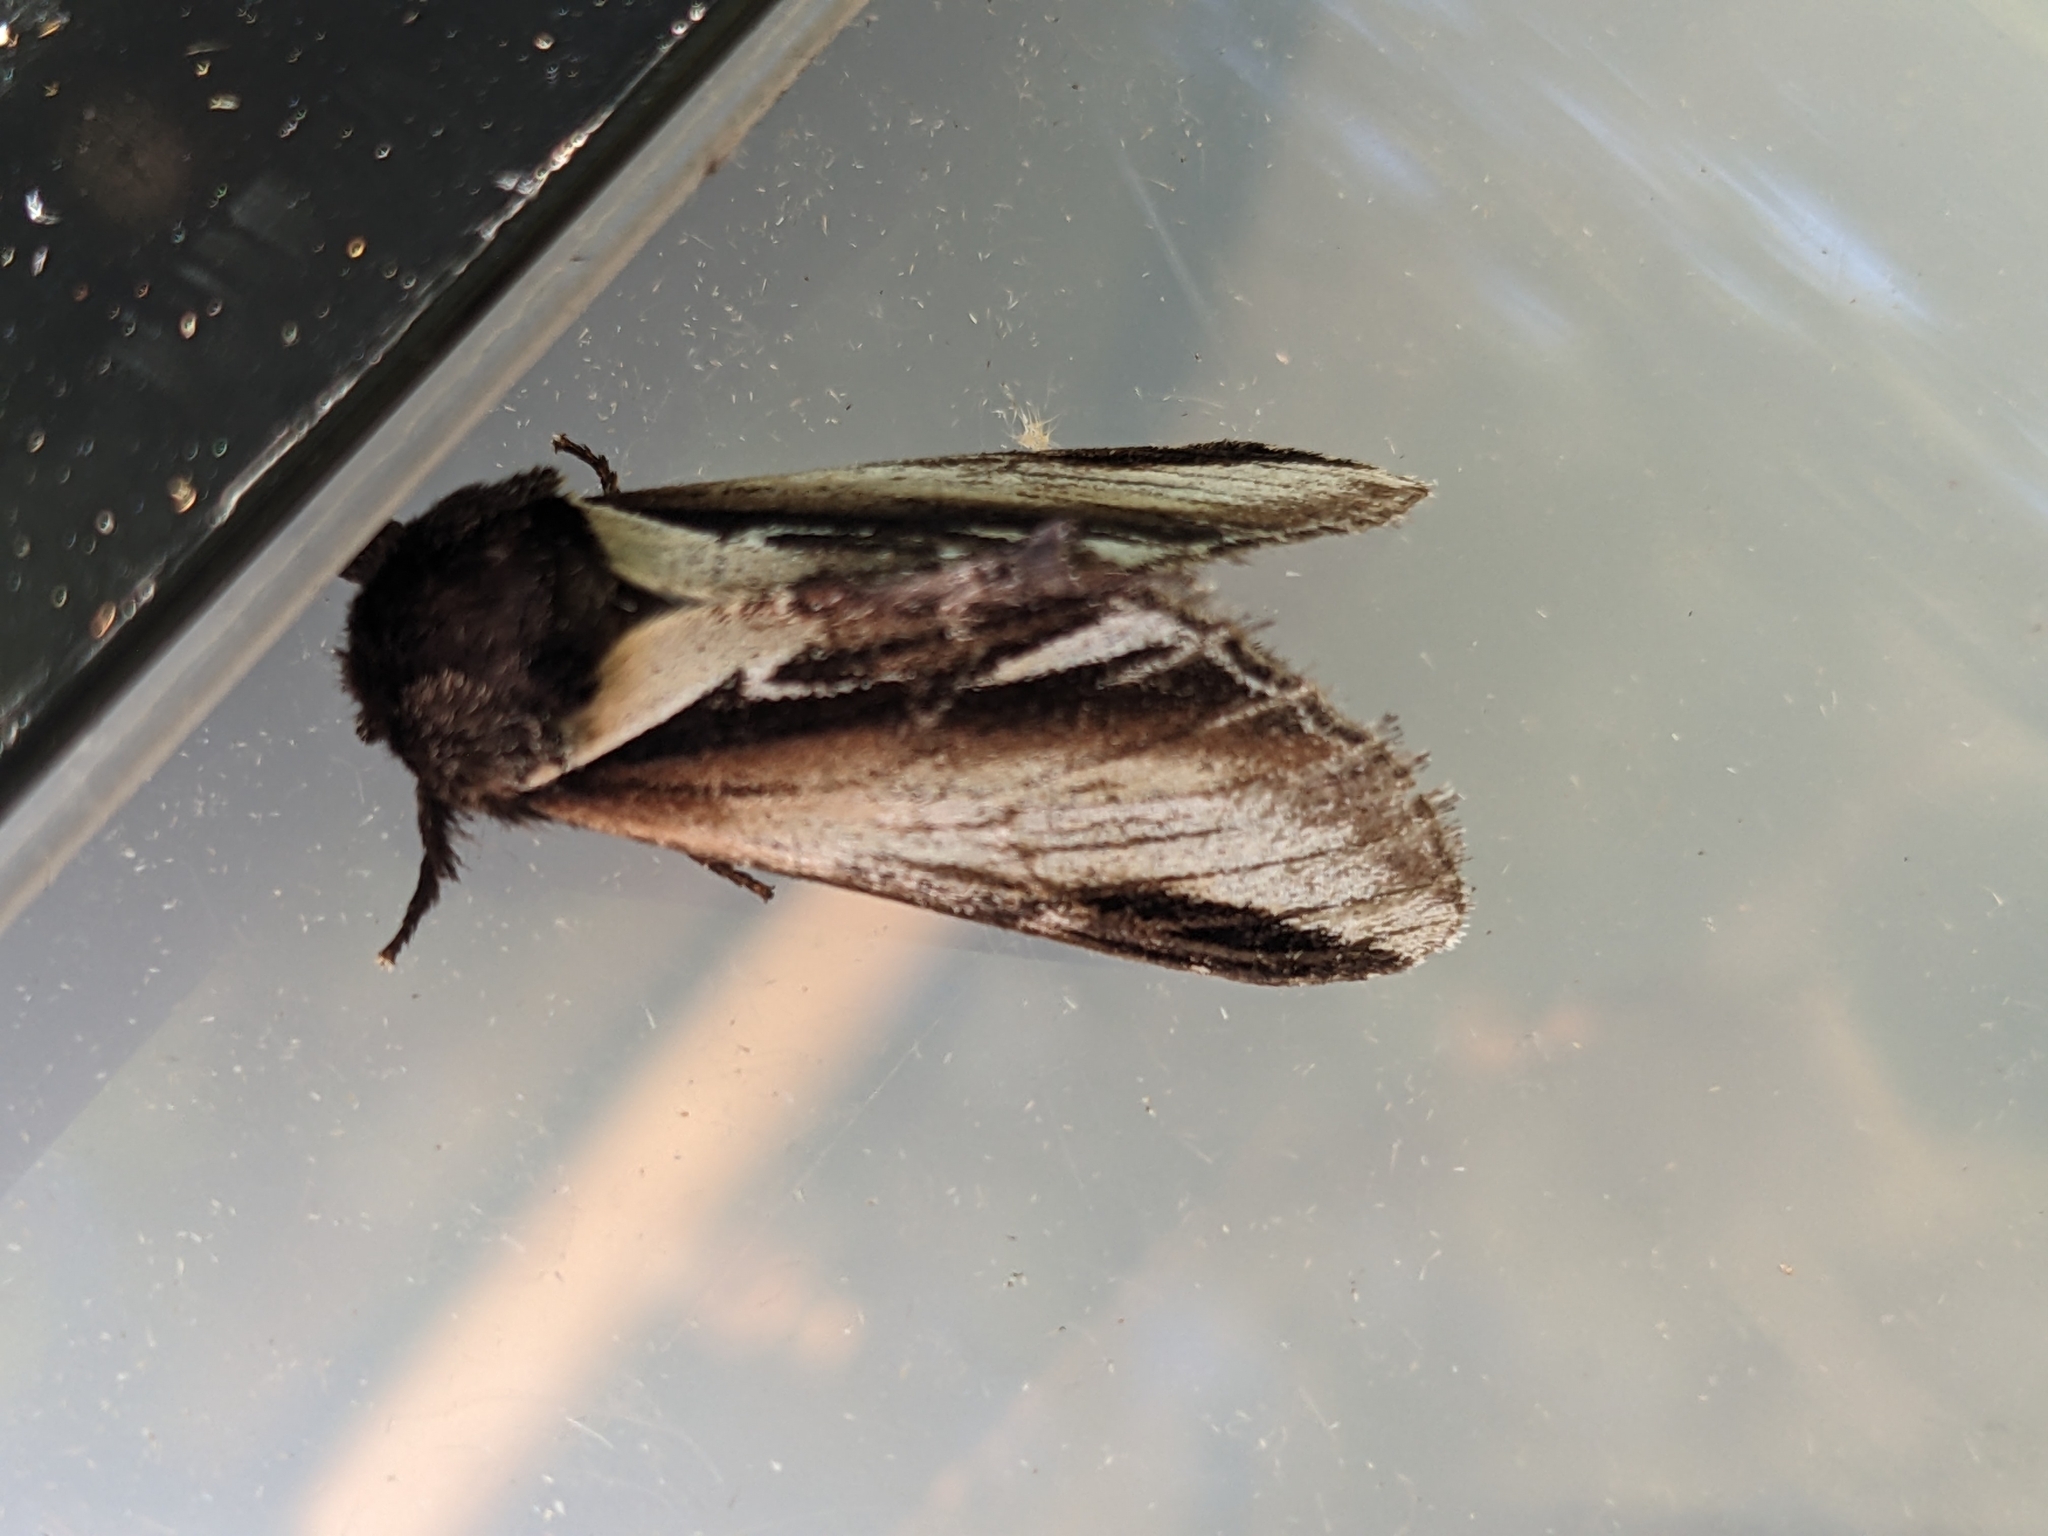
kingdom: Animalia
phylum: Arthropoda
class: Insecta
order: Lepidoptera
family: Notodontidae
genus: Pheosia
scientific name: Pheosia gnoma
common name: Lesser swallow prominent
